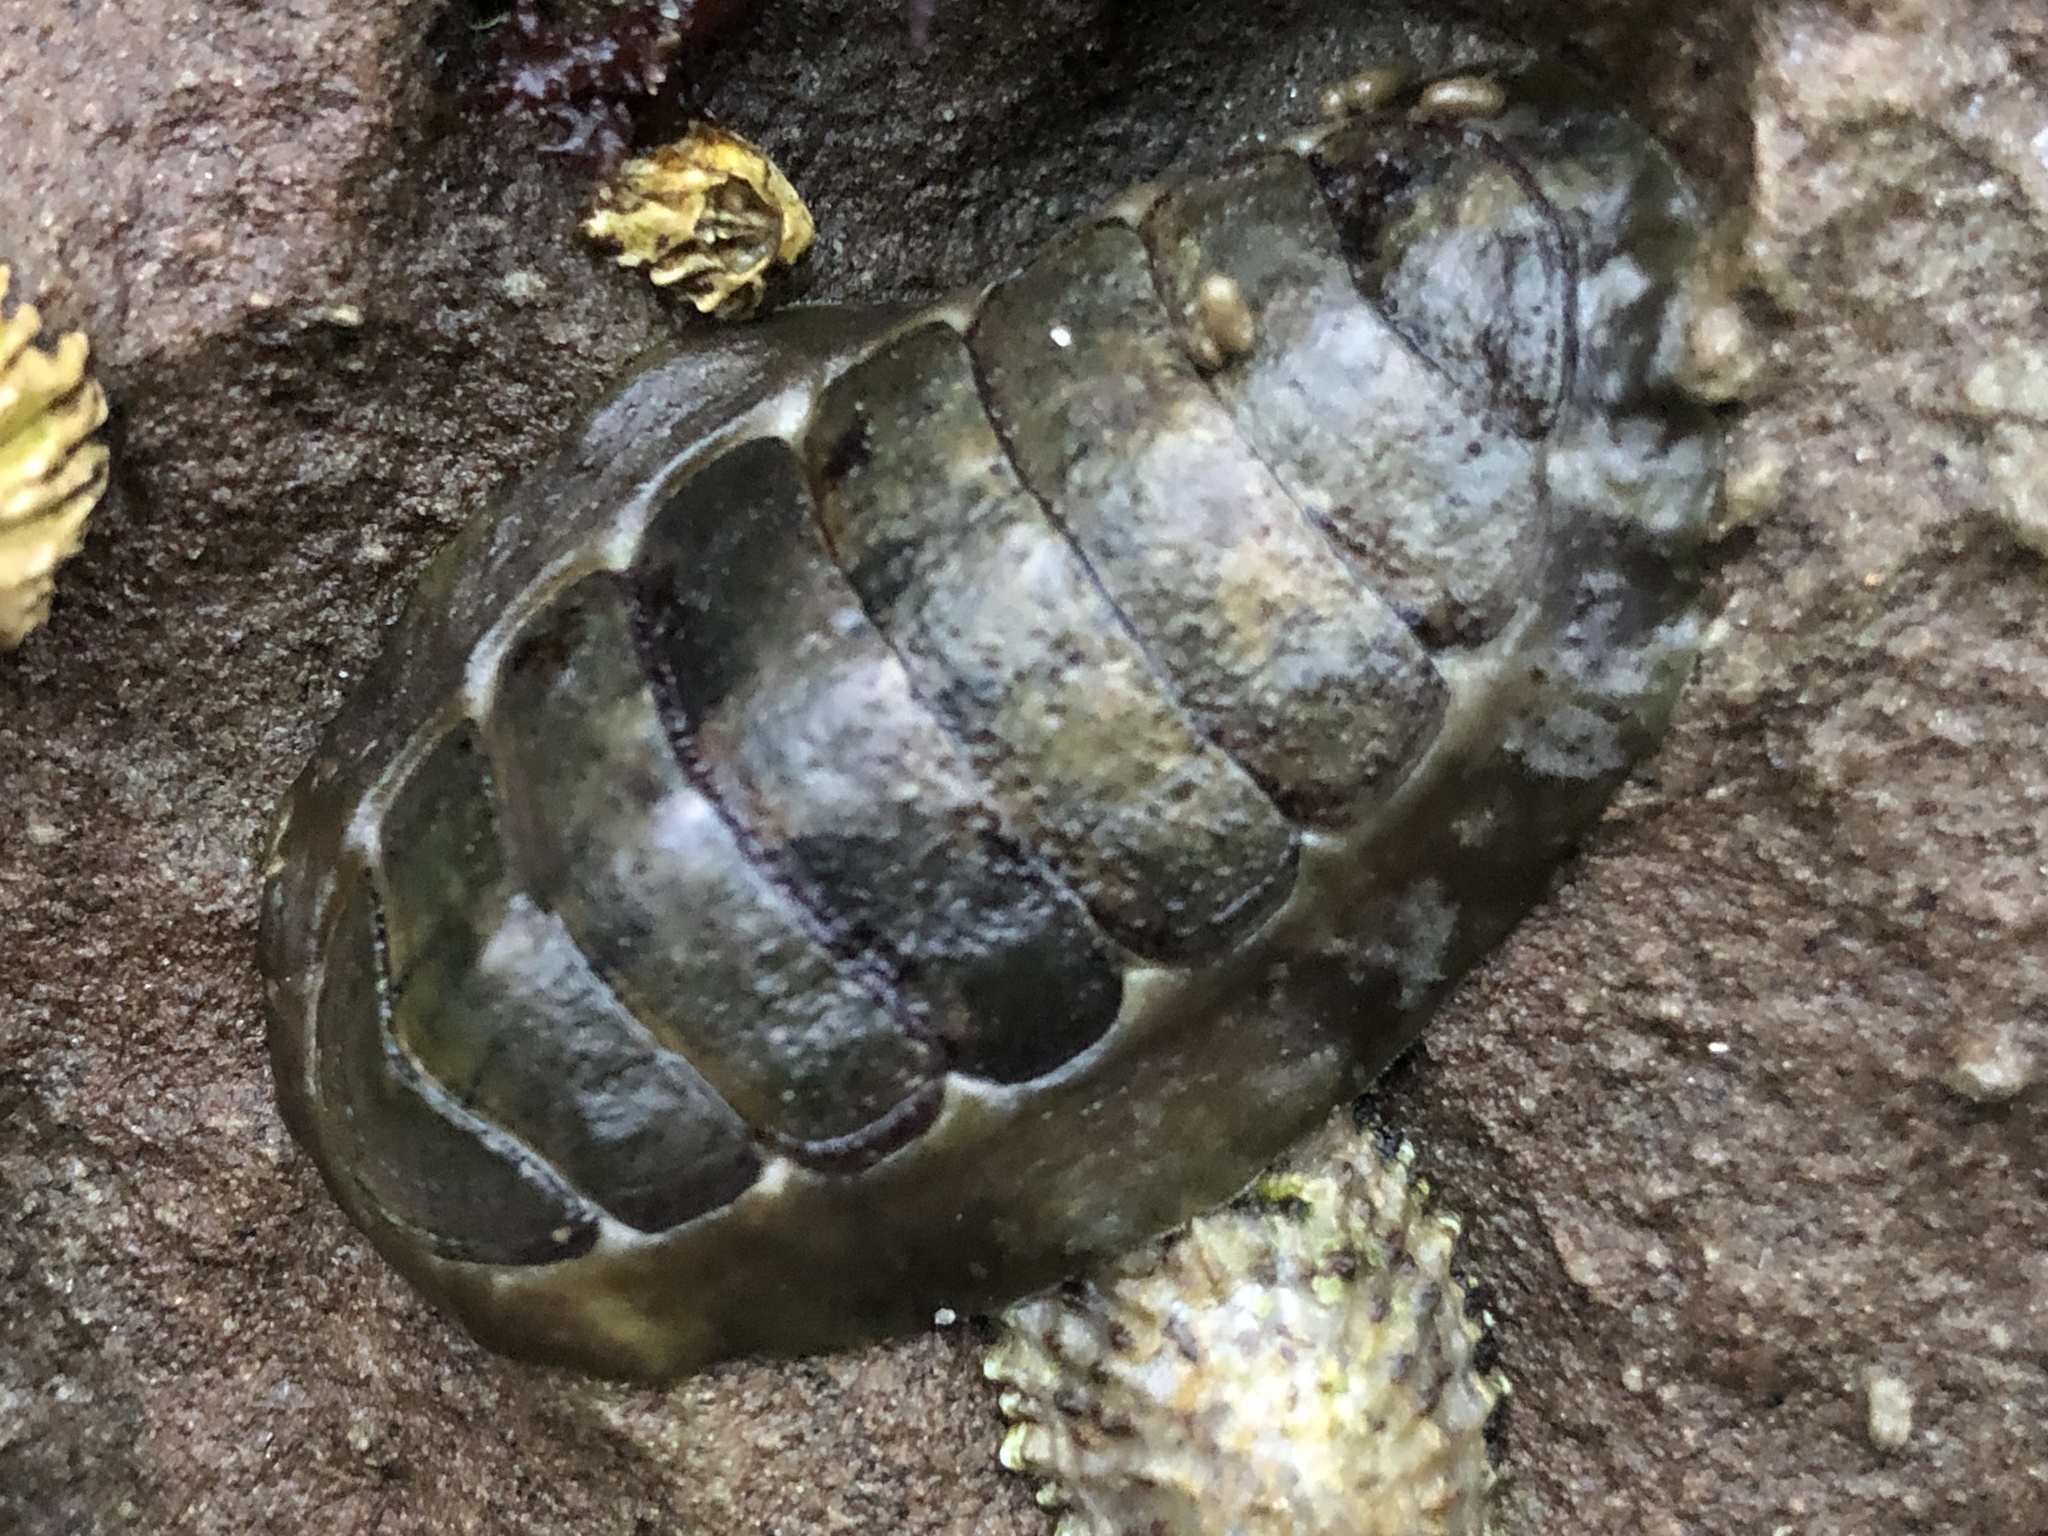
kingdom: Animalia
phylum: Mollusca
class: Polyplacophora
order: Chitonida
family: Tonicellidae
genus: Cyanoplax
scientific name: Cyanoplax hartwegii
